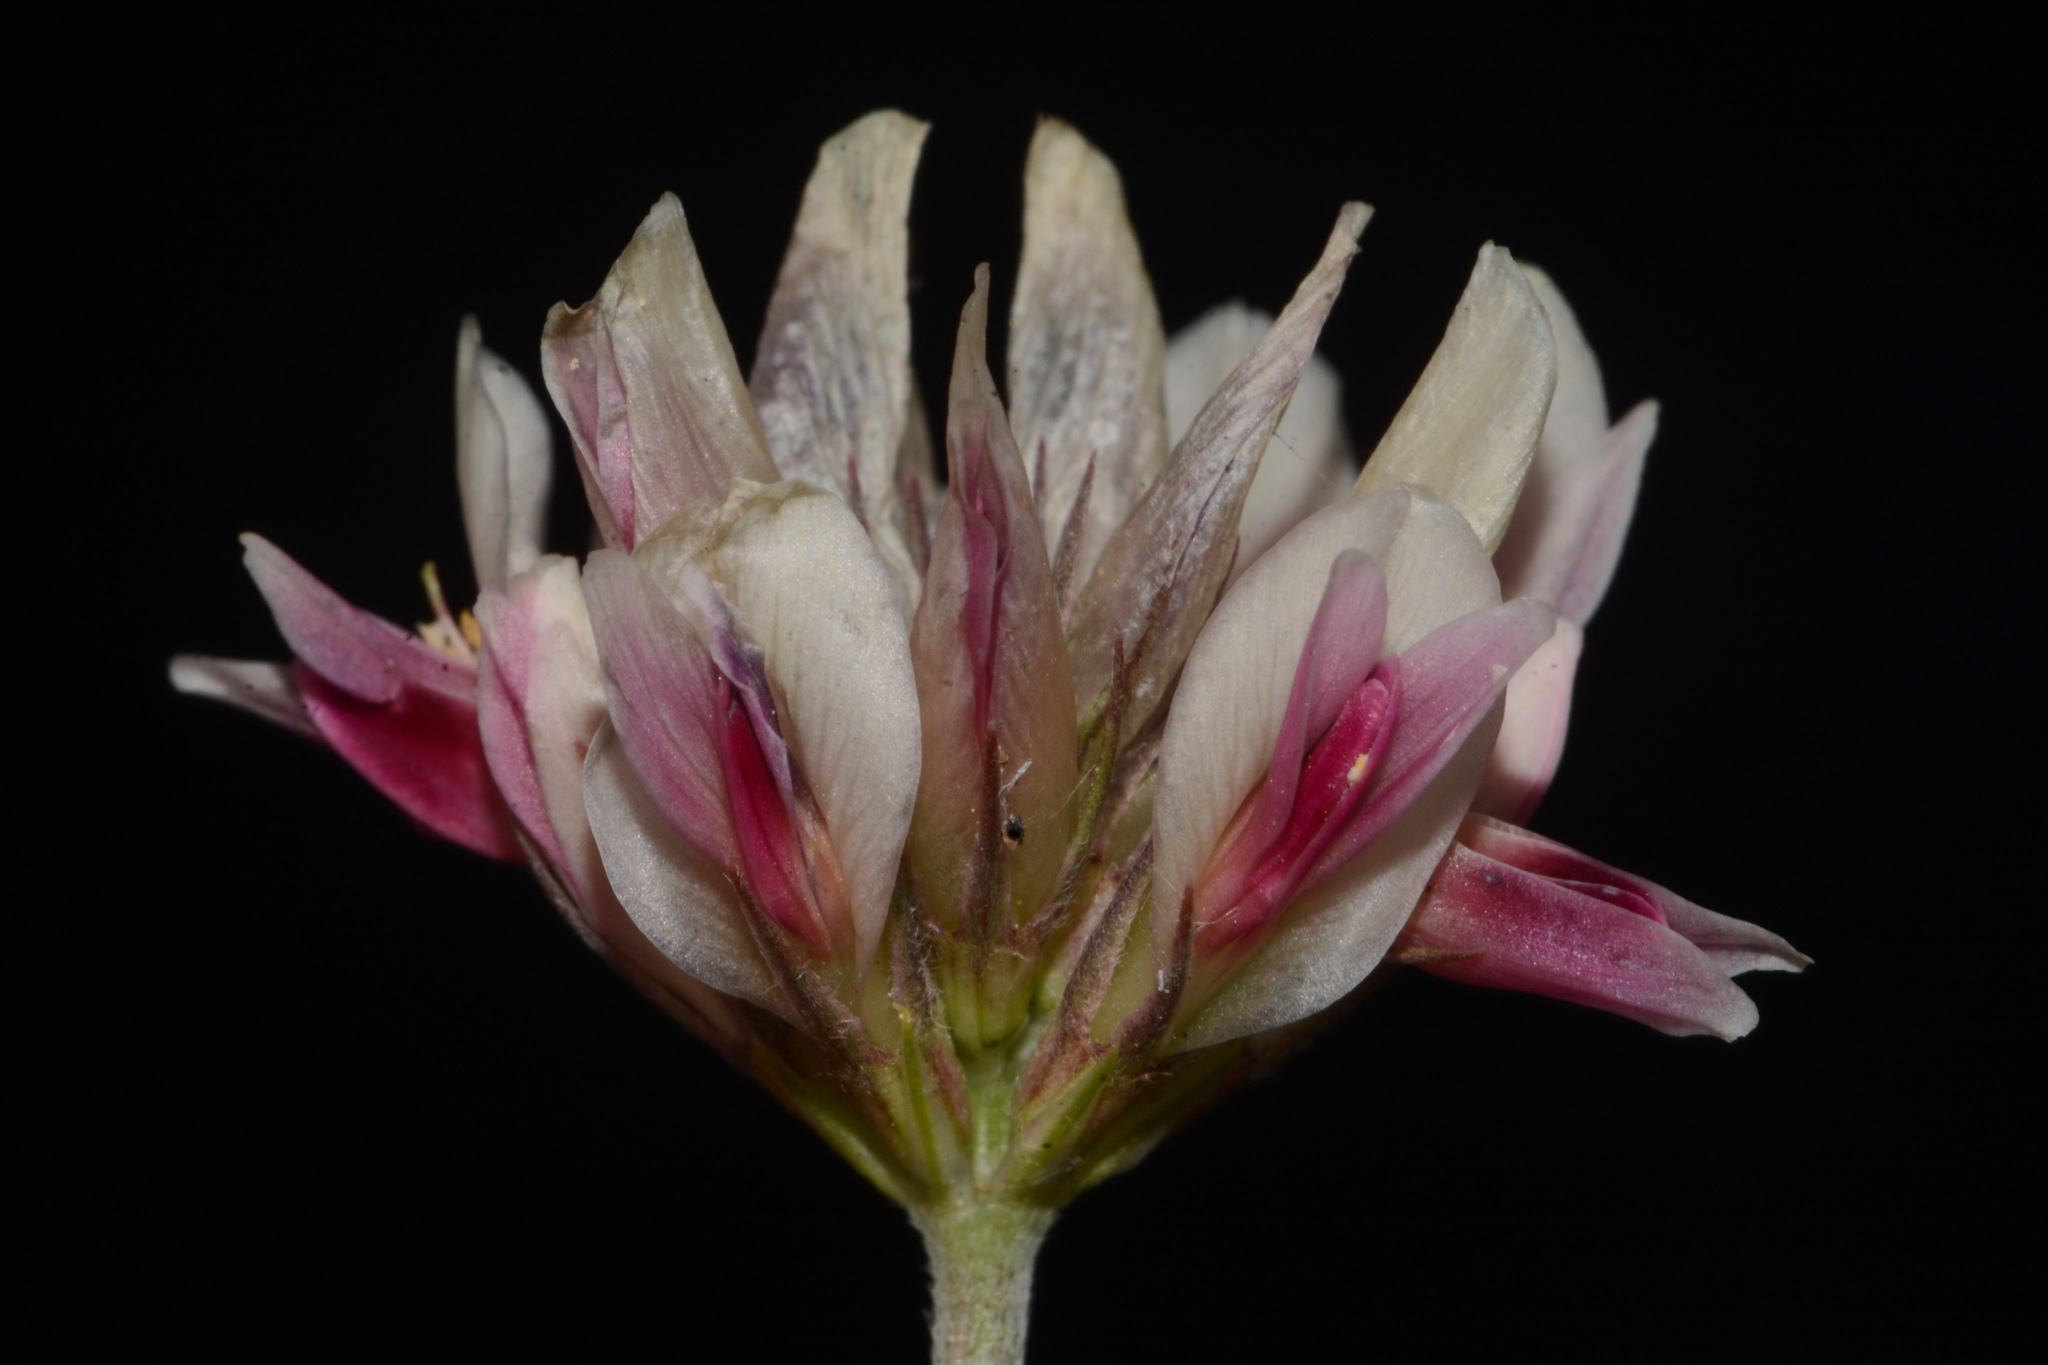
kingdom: Plantae
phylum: Tracheophyta
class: Magnoliopsida
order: Fabales
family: Fabaceae
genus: Trifolium
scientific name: Trifolium dasyphyllum
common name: Whip-root clover
